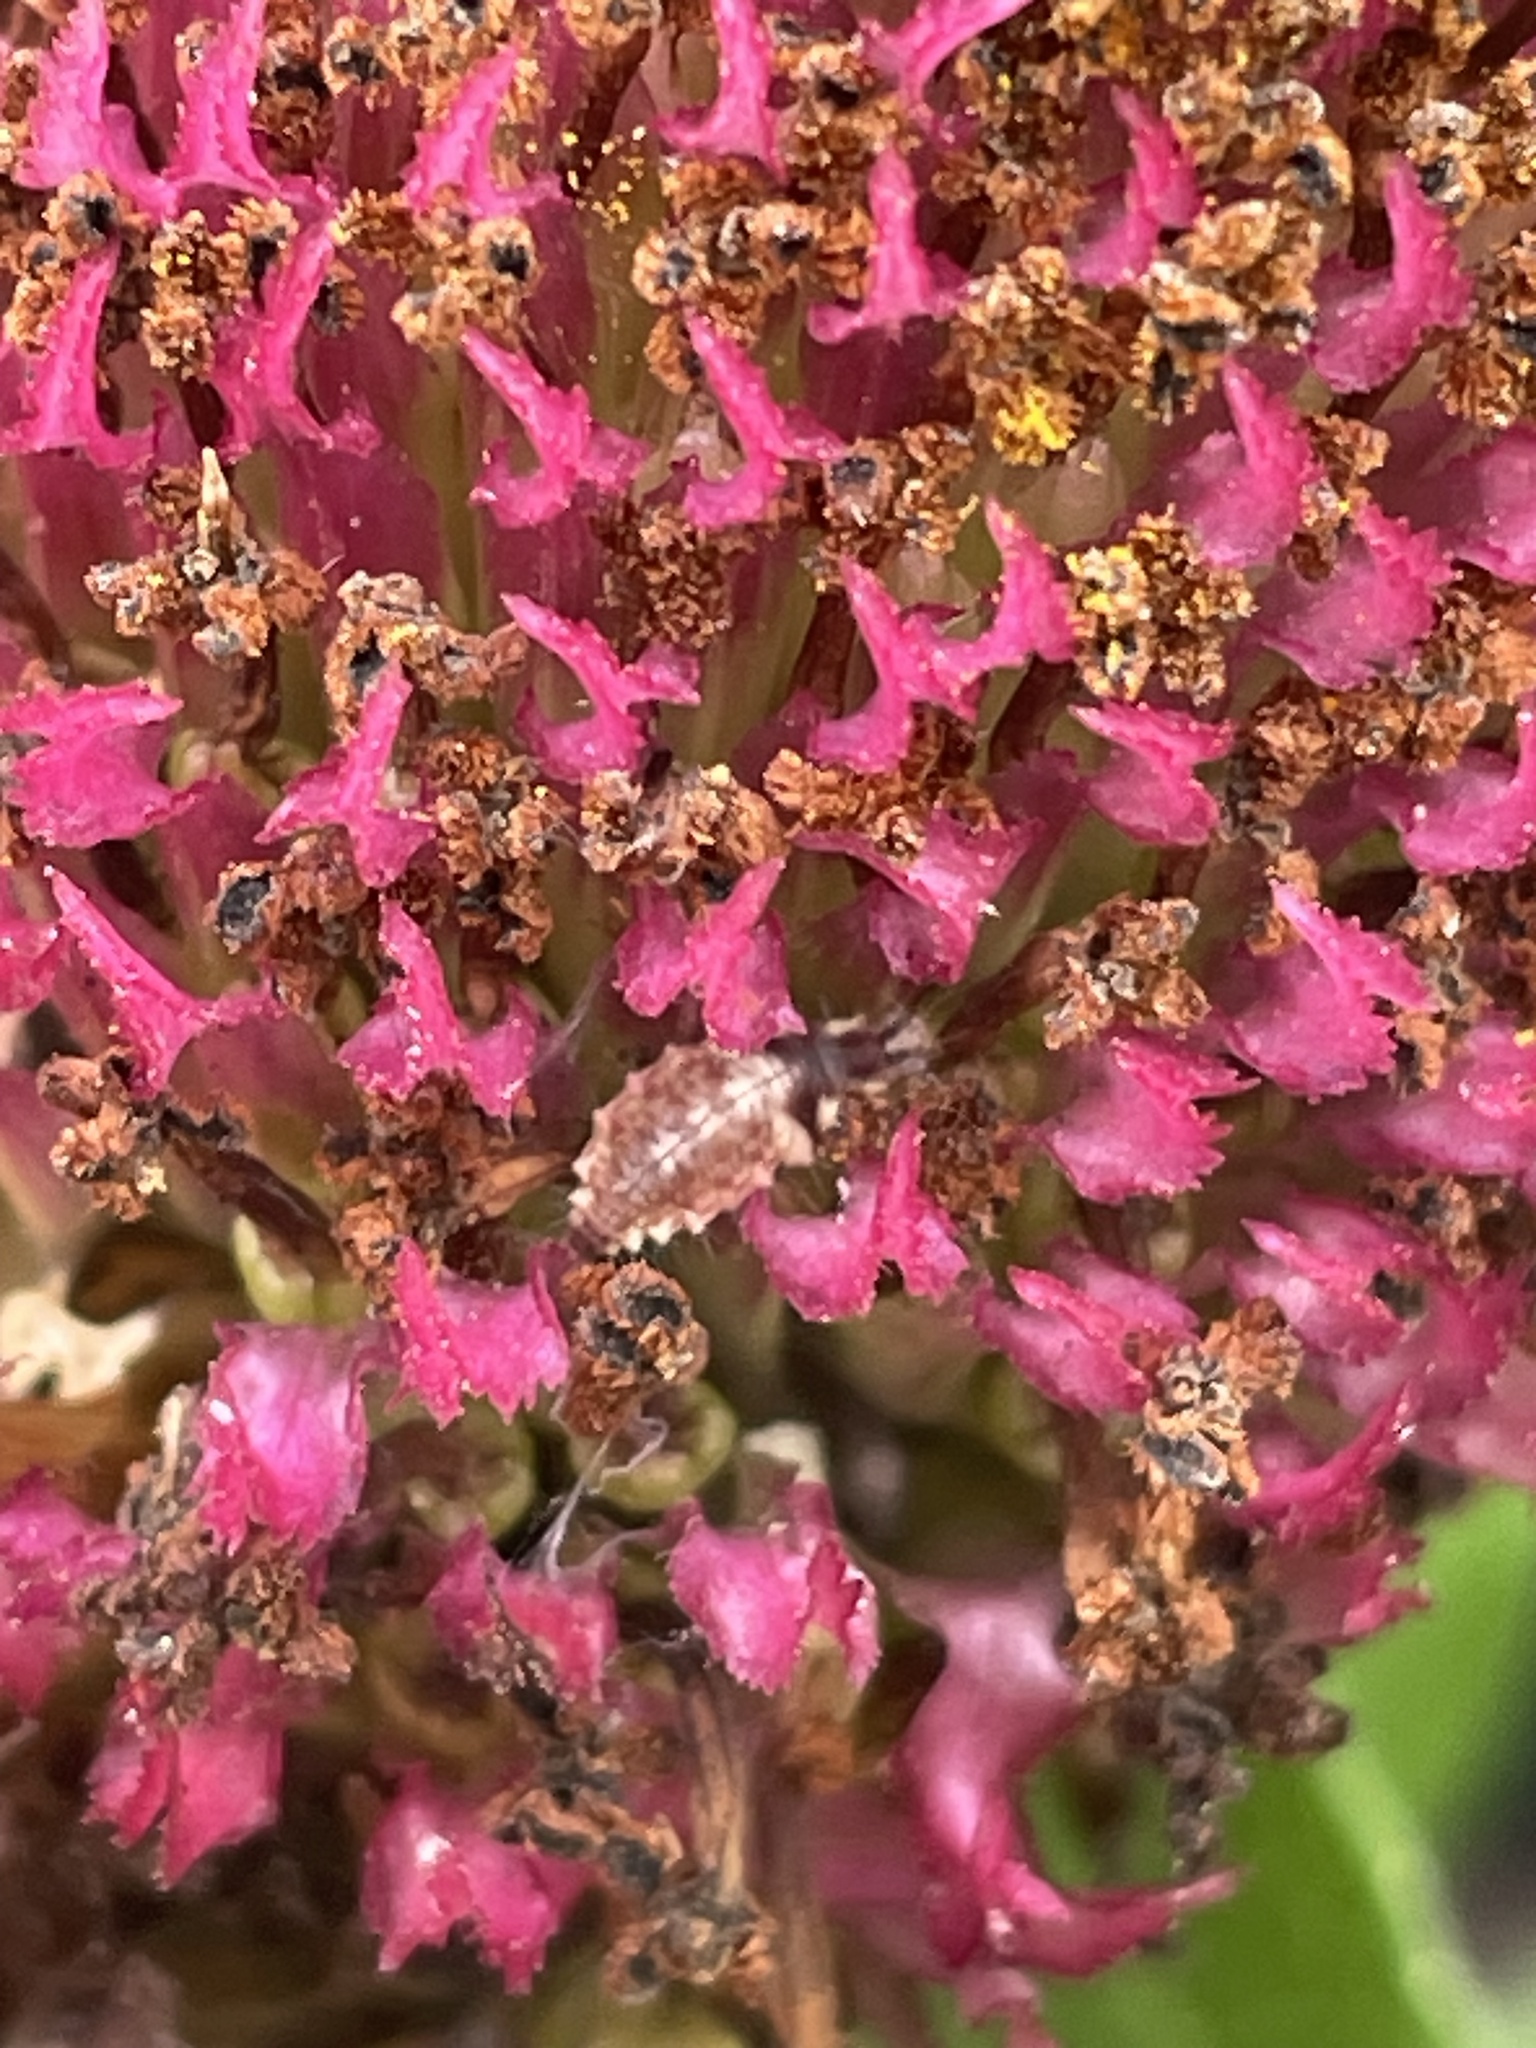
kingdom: Animalia
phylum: Arthropoda
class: Insecta
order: Neuroptera
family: Chrysopidae
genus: Chrysoperla
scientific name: Chrysoperla rufilabris
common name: Red-lipped green lacewing
